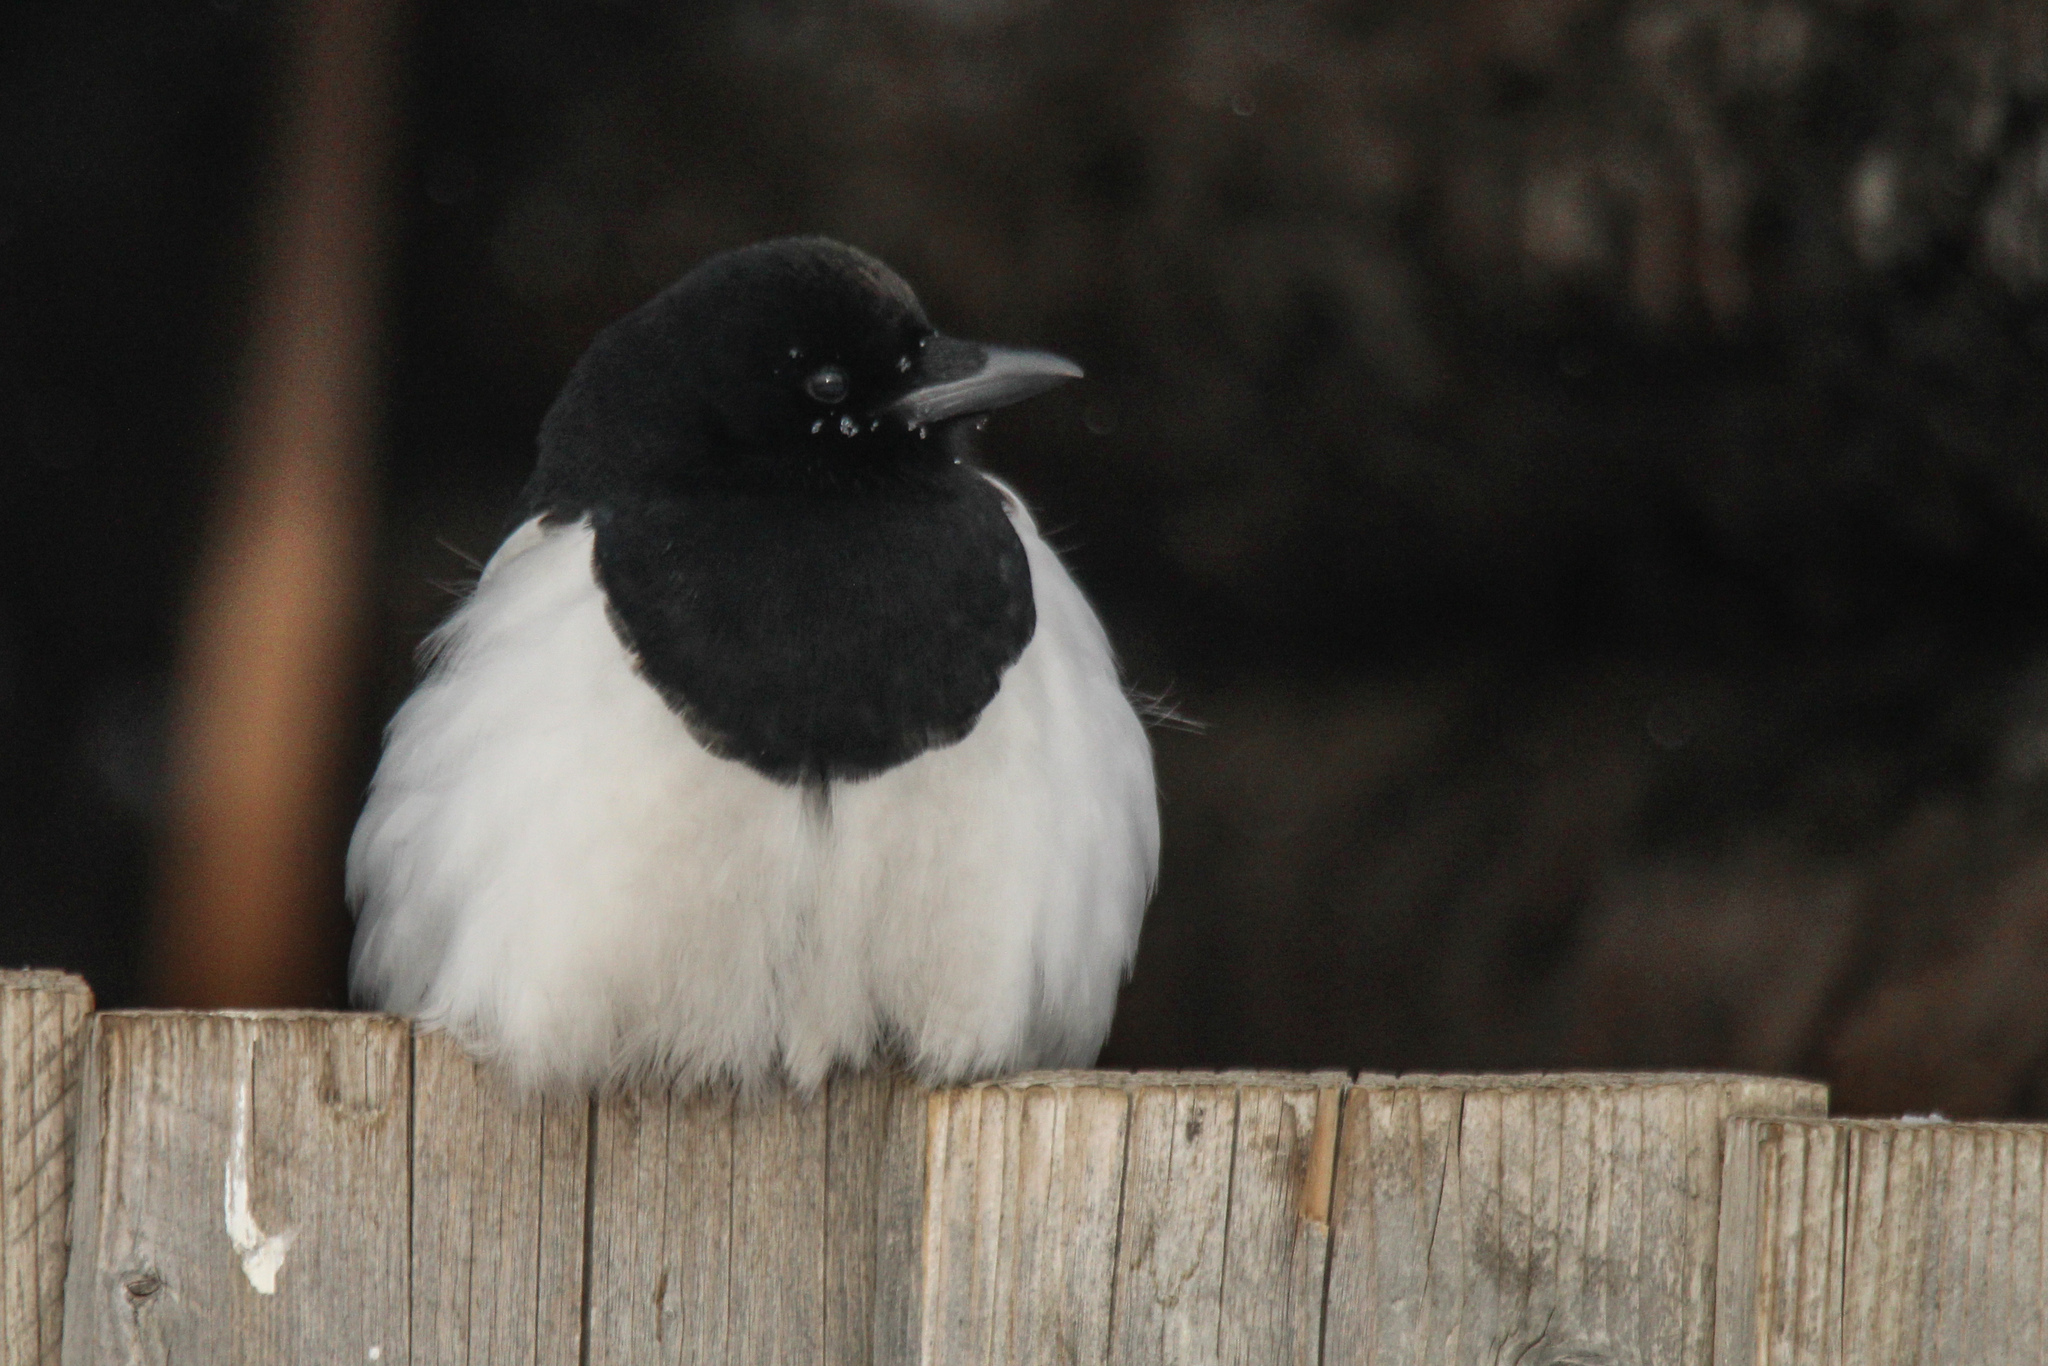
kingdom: Animalia
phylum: Chordata
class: Aves
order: Passeriformes
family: Corvidae
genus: Pica
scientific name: Pica pica
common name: Eurasian magpie
